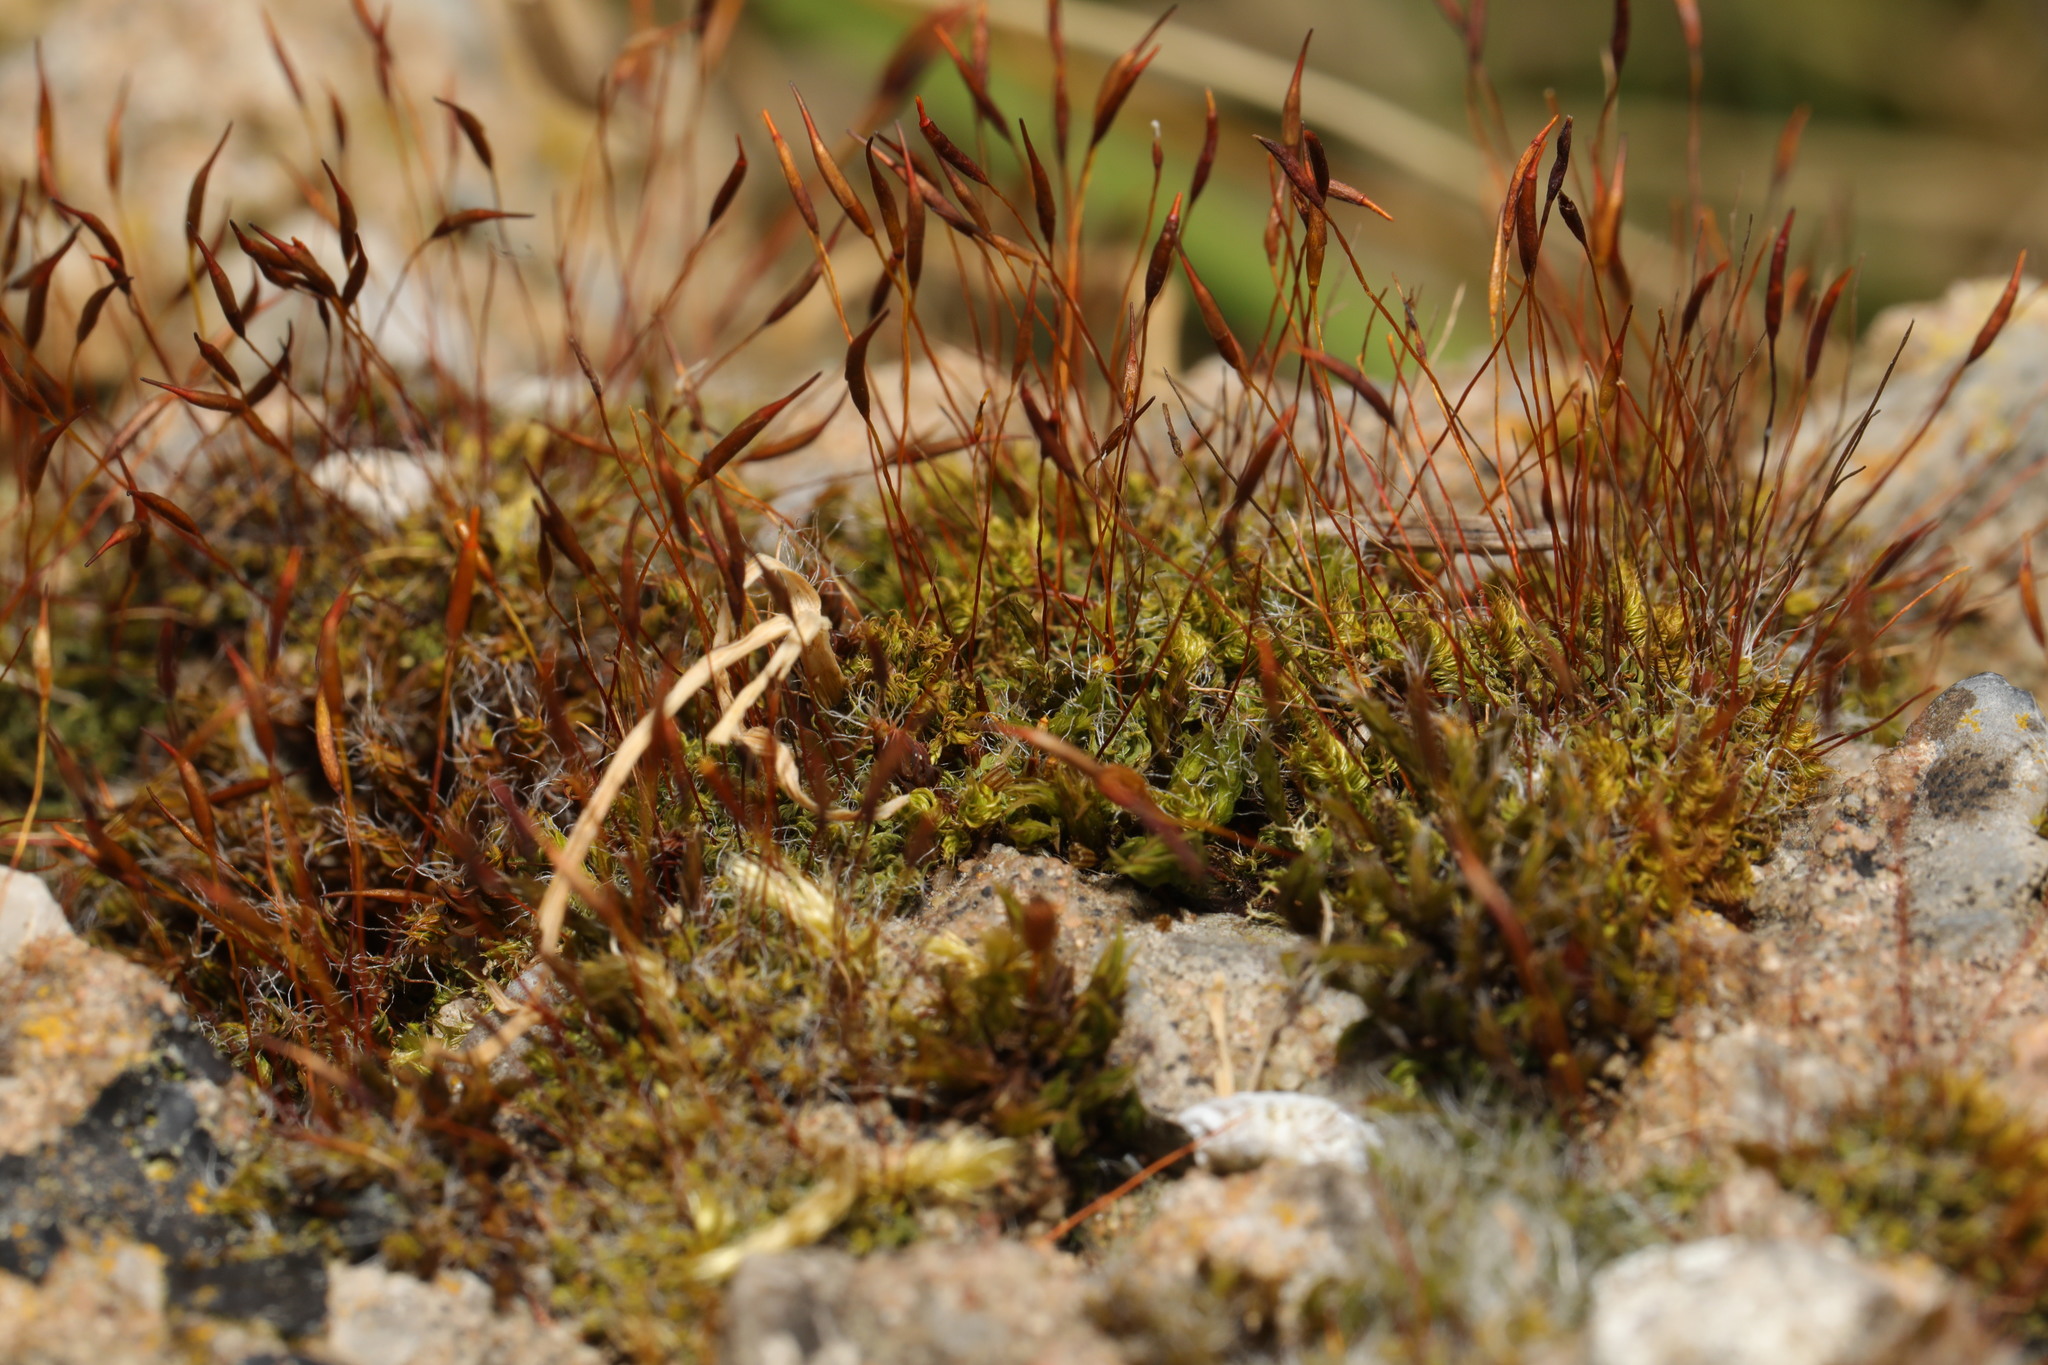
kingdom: Plantae
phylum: Bryophyta
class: Bryopsida
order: Pottiales
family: Pottiaceae
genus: Tortula
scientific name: Tortula muralis
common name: Wall screw-moss
